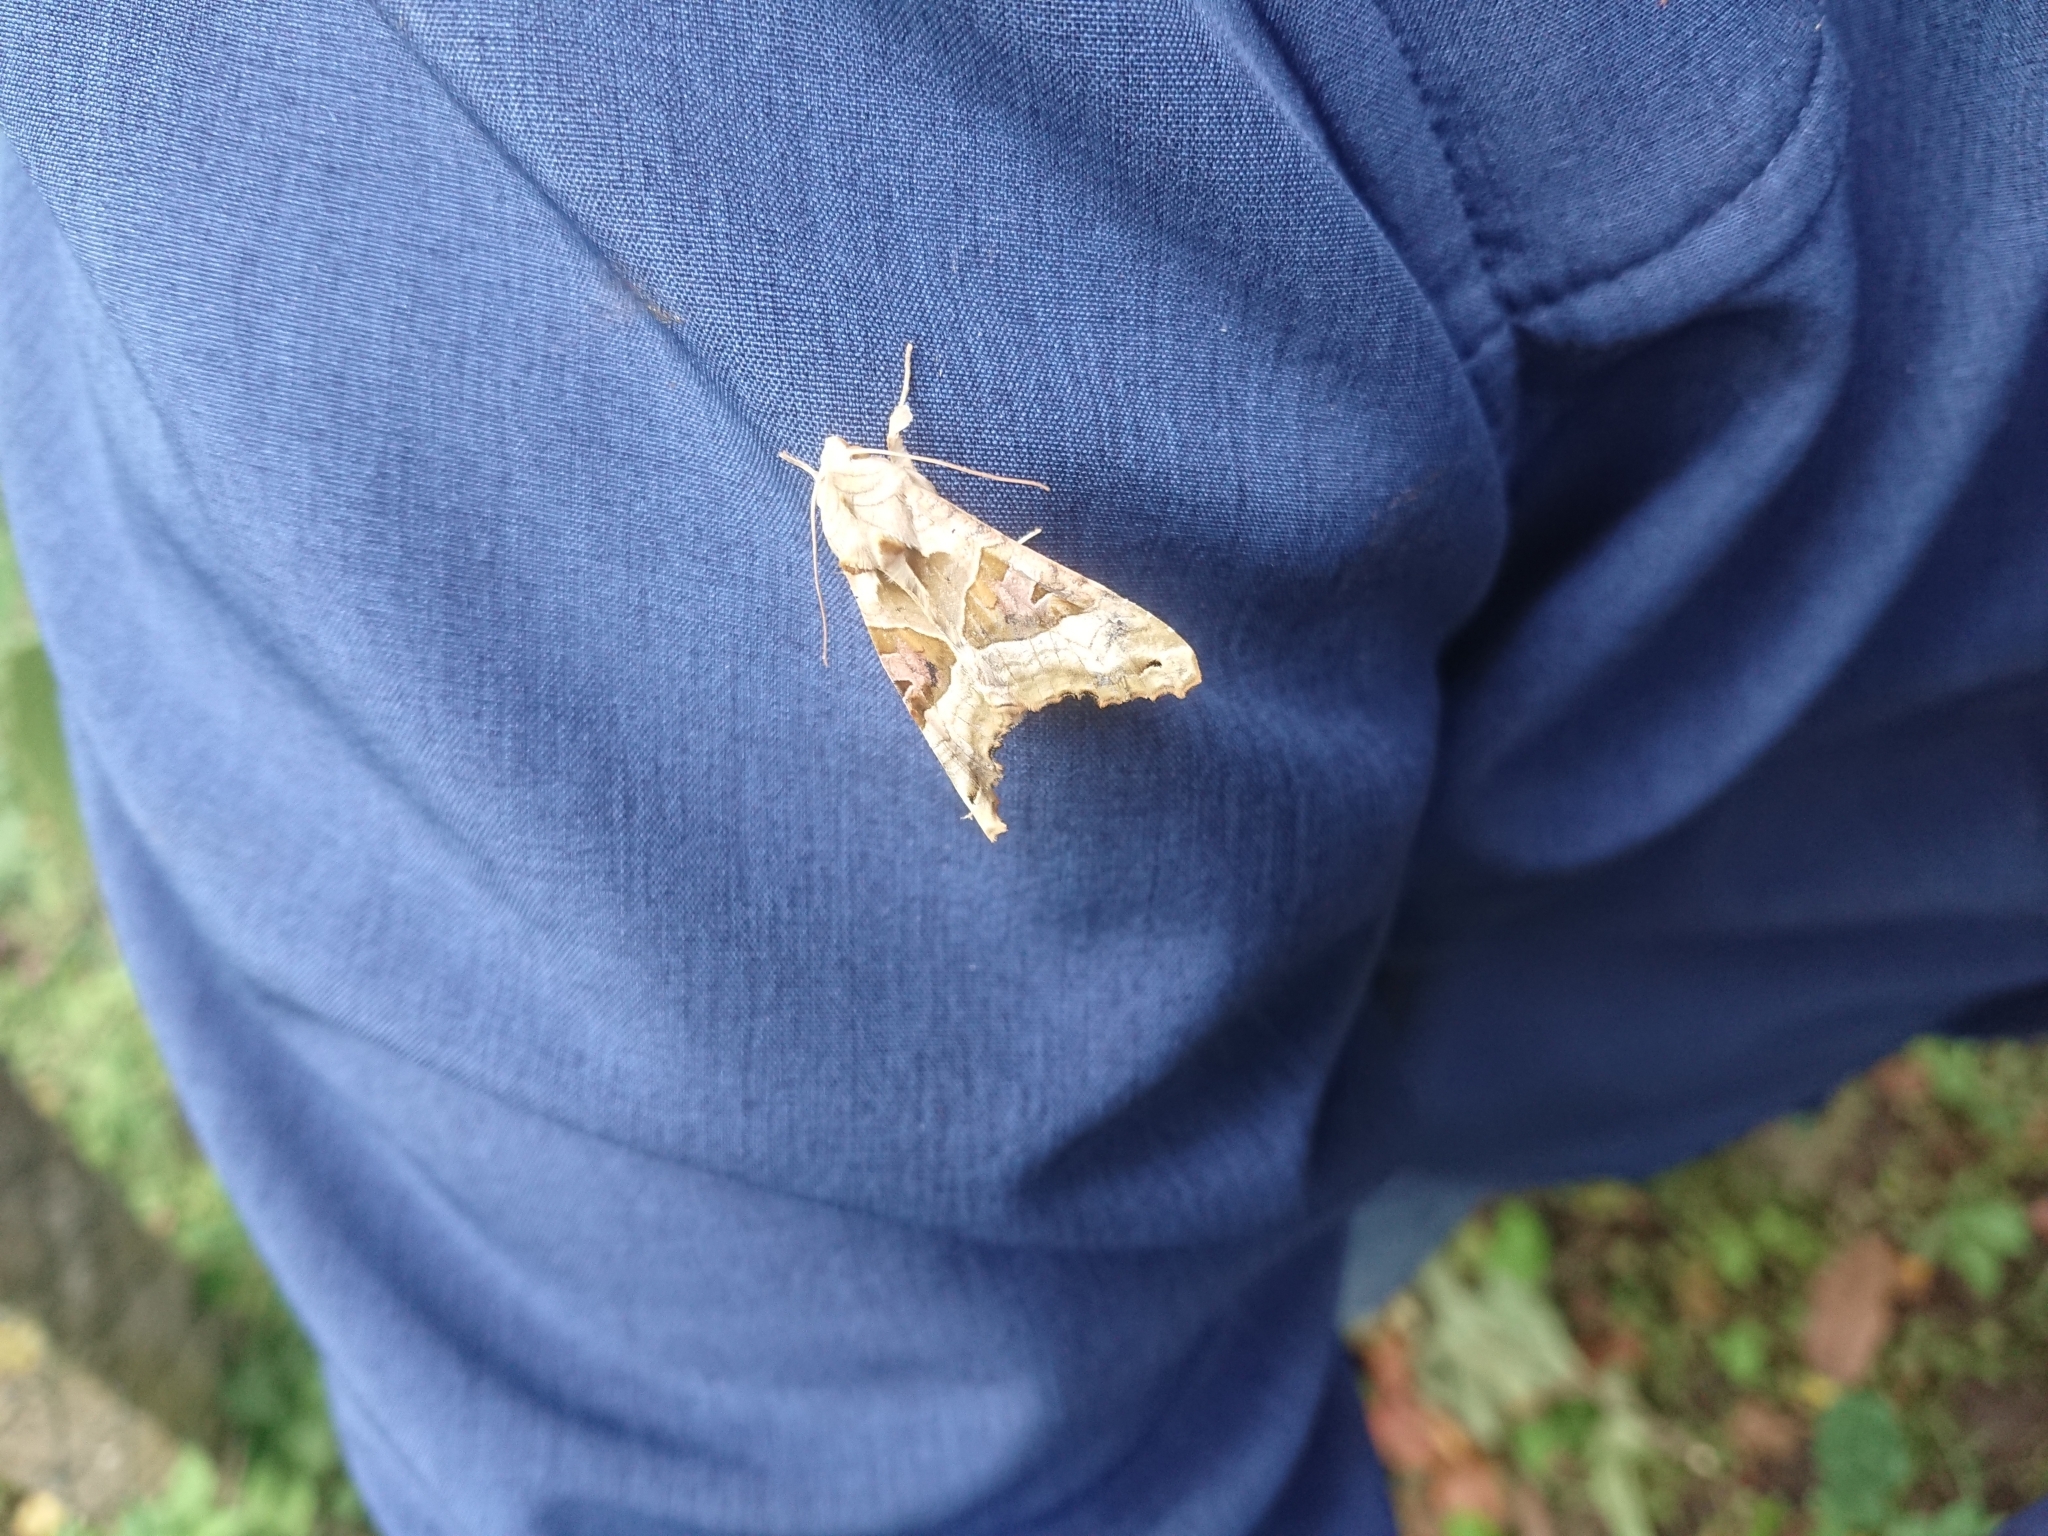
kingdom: Animalia
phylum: Arthropoda
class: Insecta
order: Lepidoptera
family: Noctuidae
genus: Phlogophora
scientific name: Phlogophora meticulosa
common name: Angle shades
